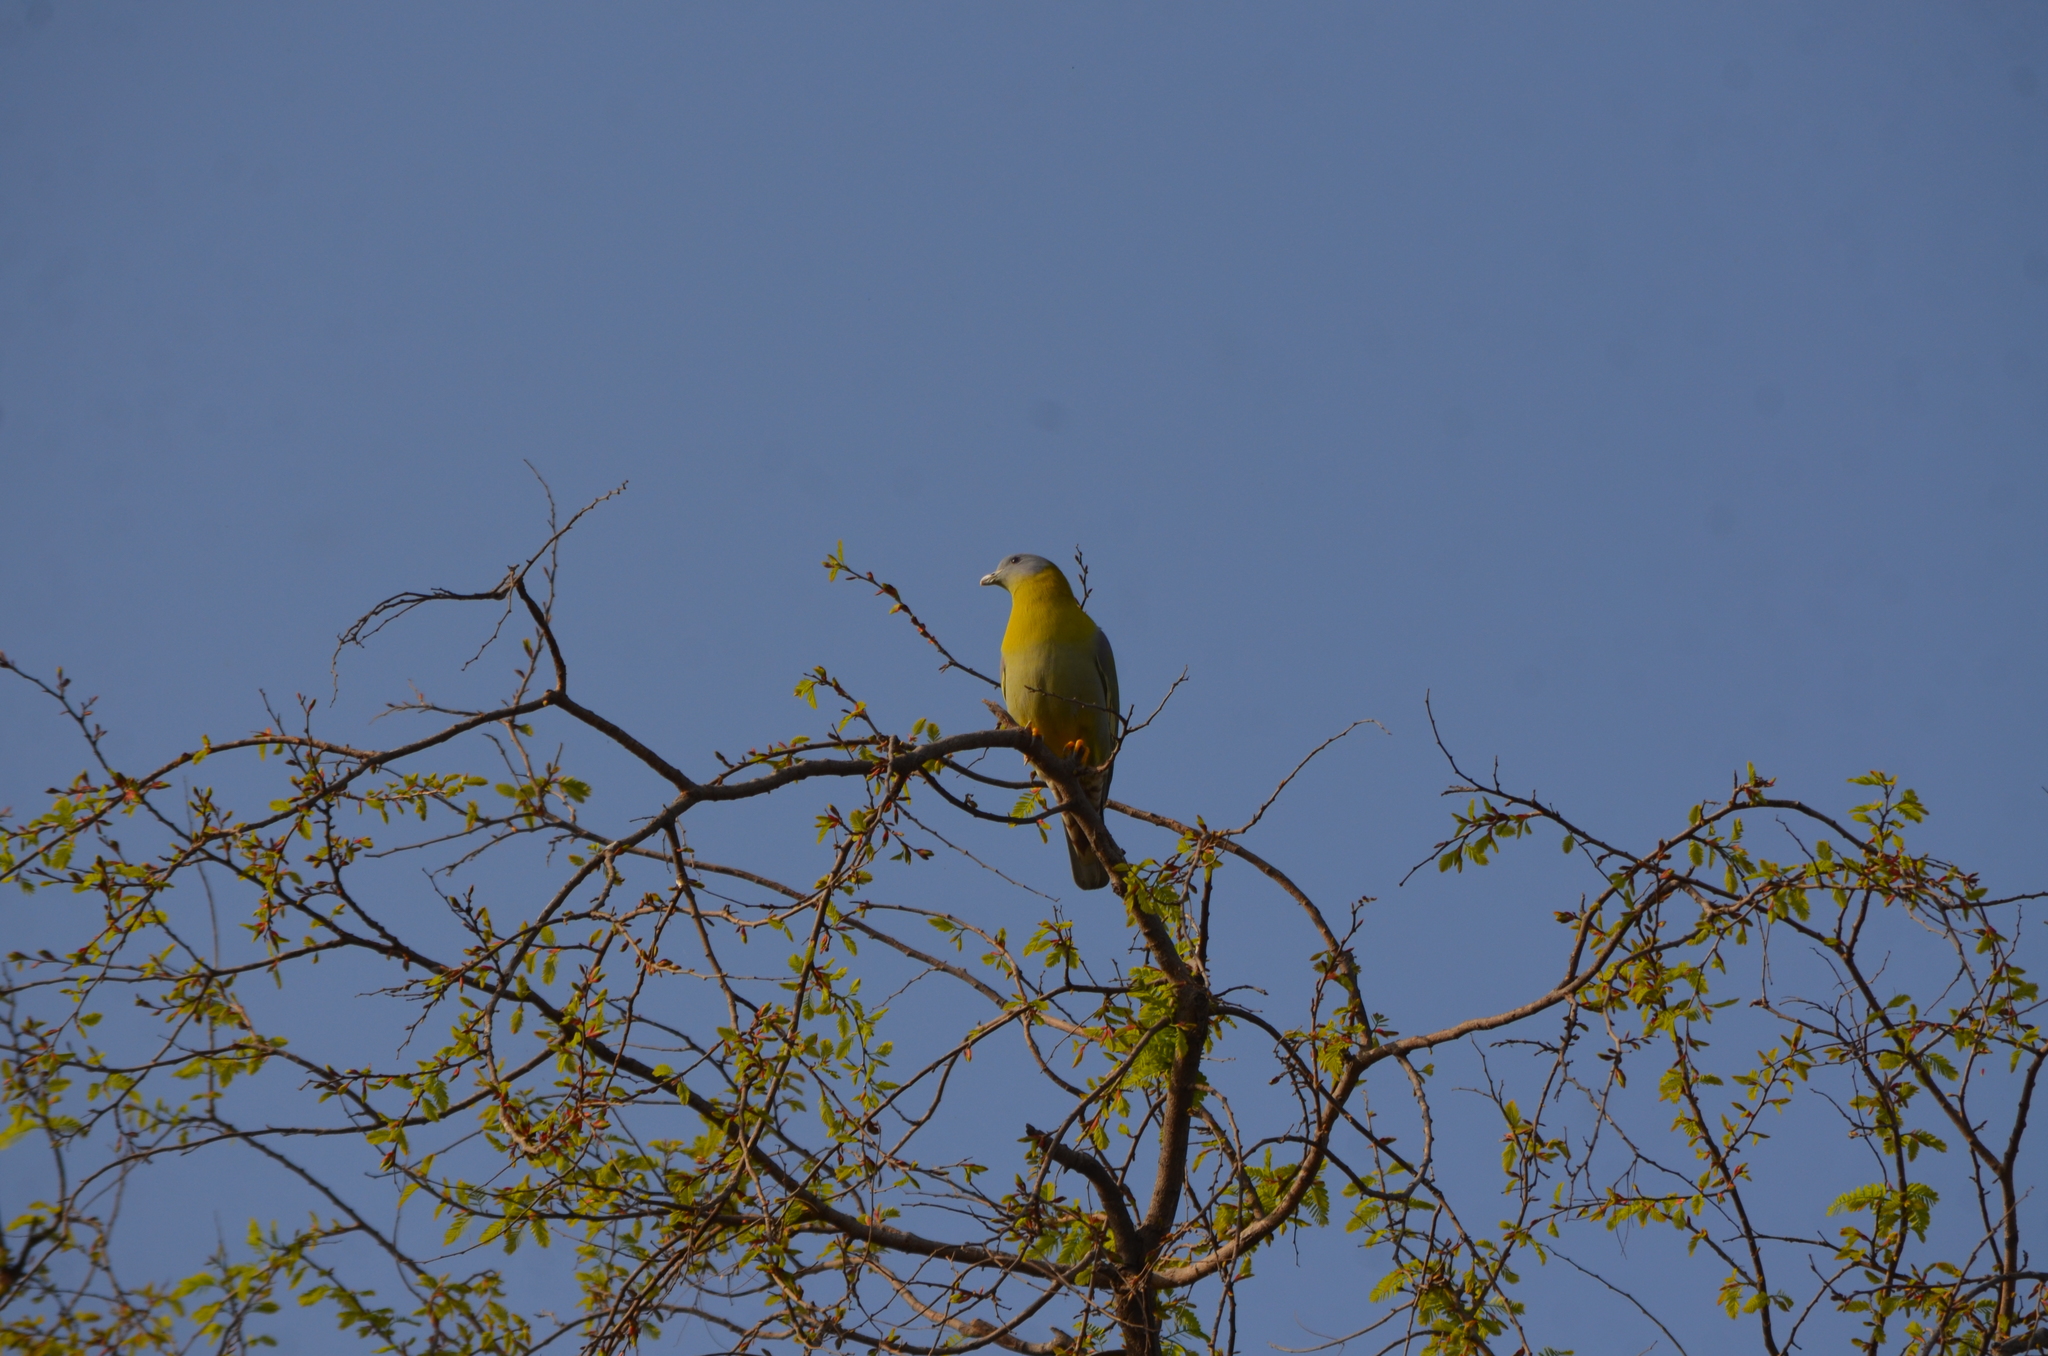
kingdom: Animalia
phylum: Chordata
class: Aves
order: Columbiformes
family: Columbidae
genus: Treron
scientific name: Treron phoenicopterus
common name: Yellow-footed green pigeon
